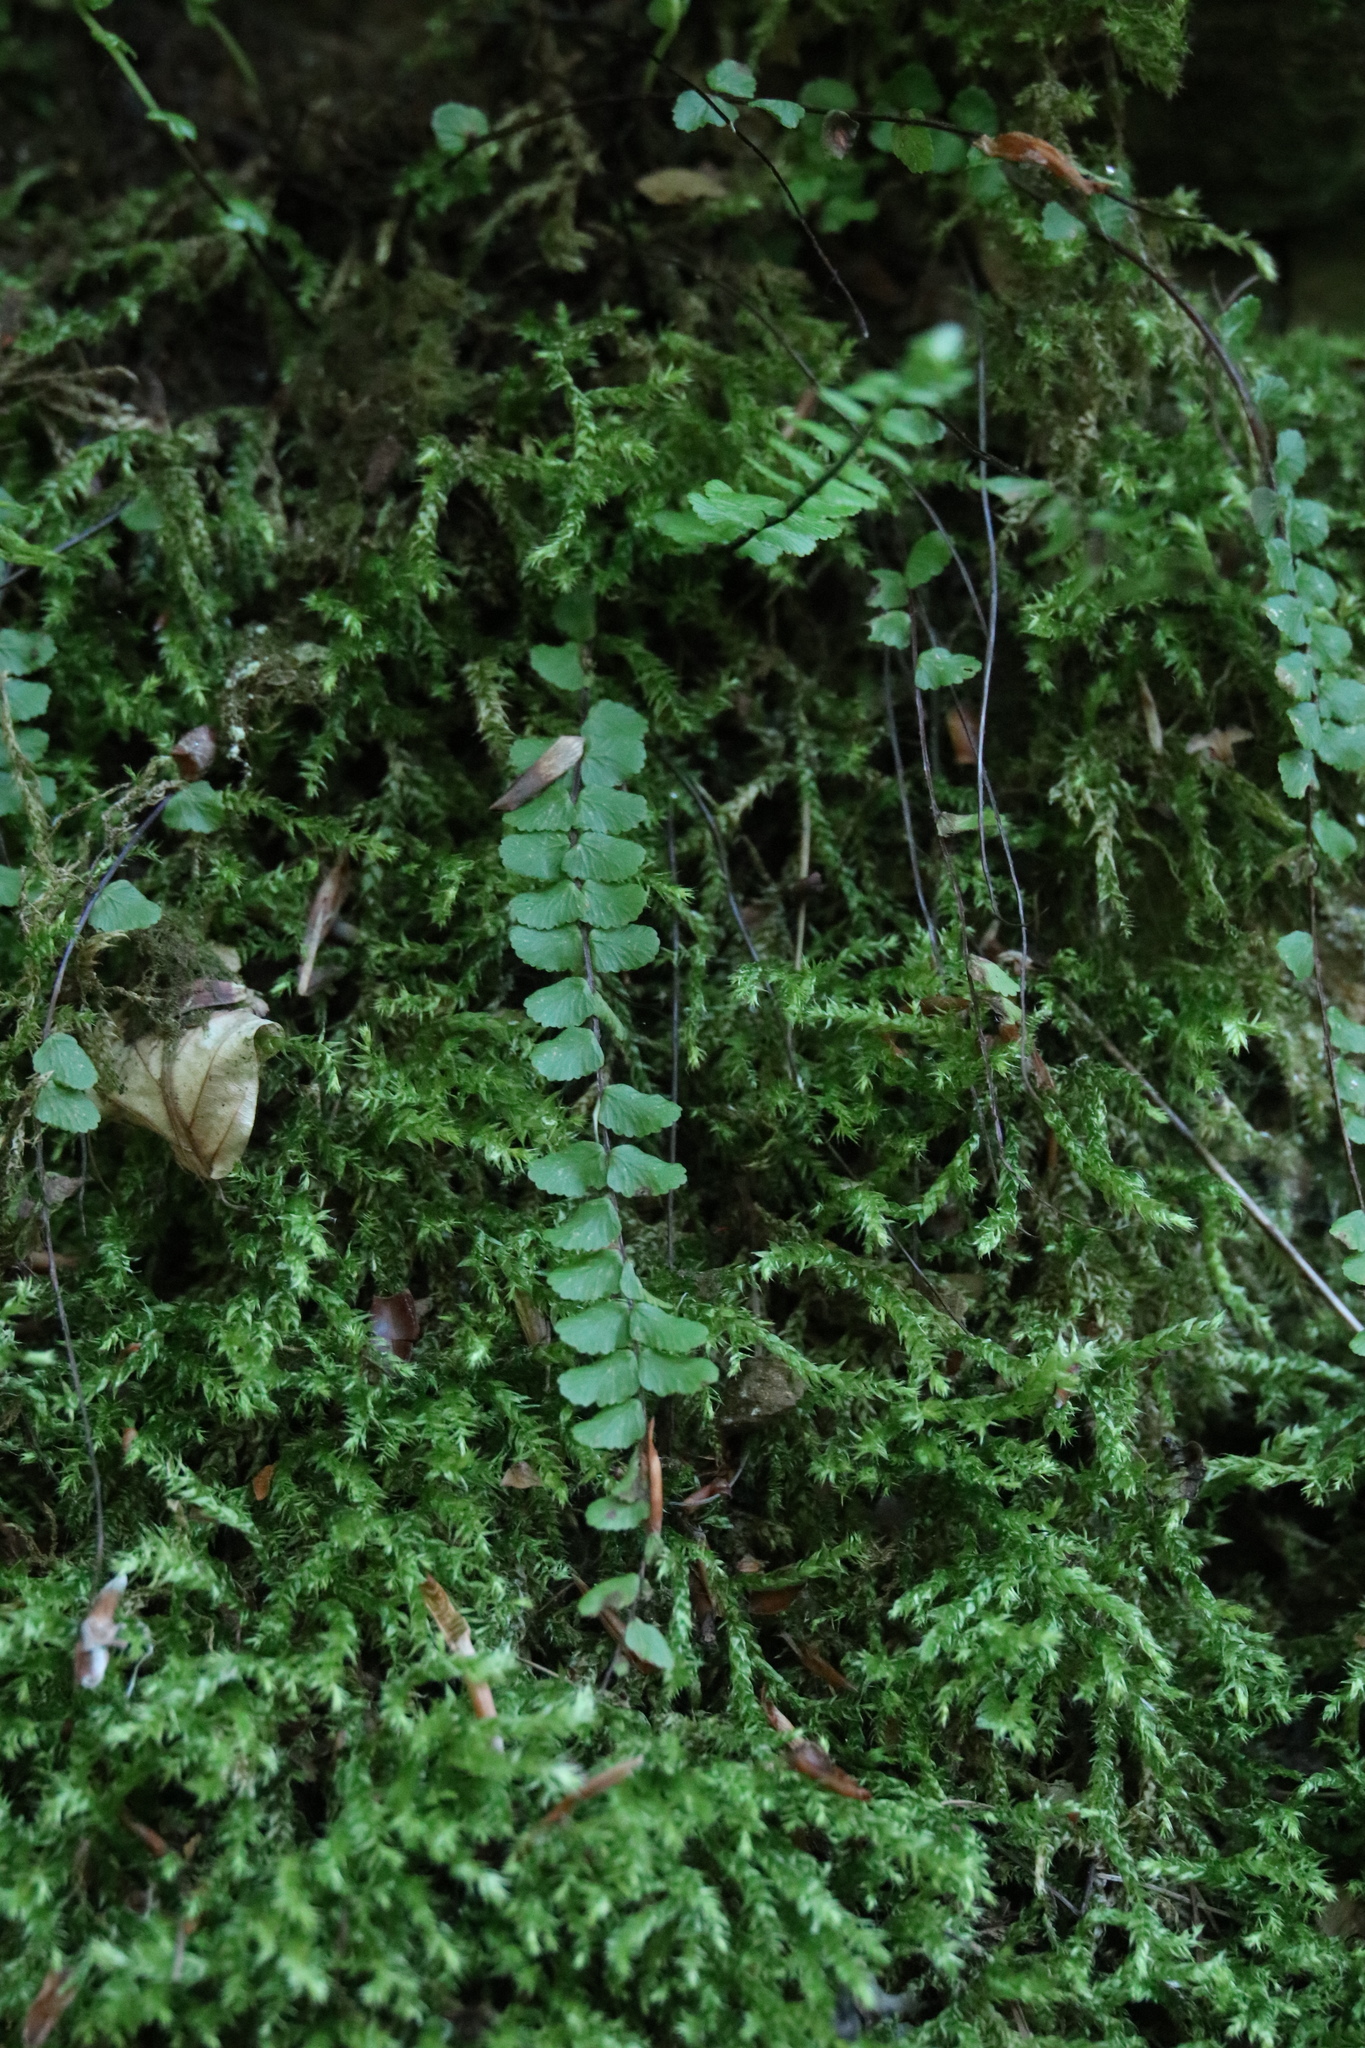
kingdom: Plantae
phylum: Tracheophyta
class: Polypodiopsida
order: Polypodiales
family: Aspleniaceae
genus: Asplenium
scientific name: Asplenium trichomanes
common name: Maidenhair spleenwort
